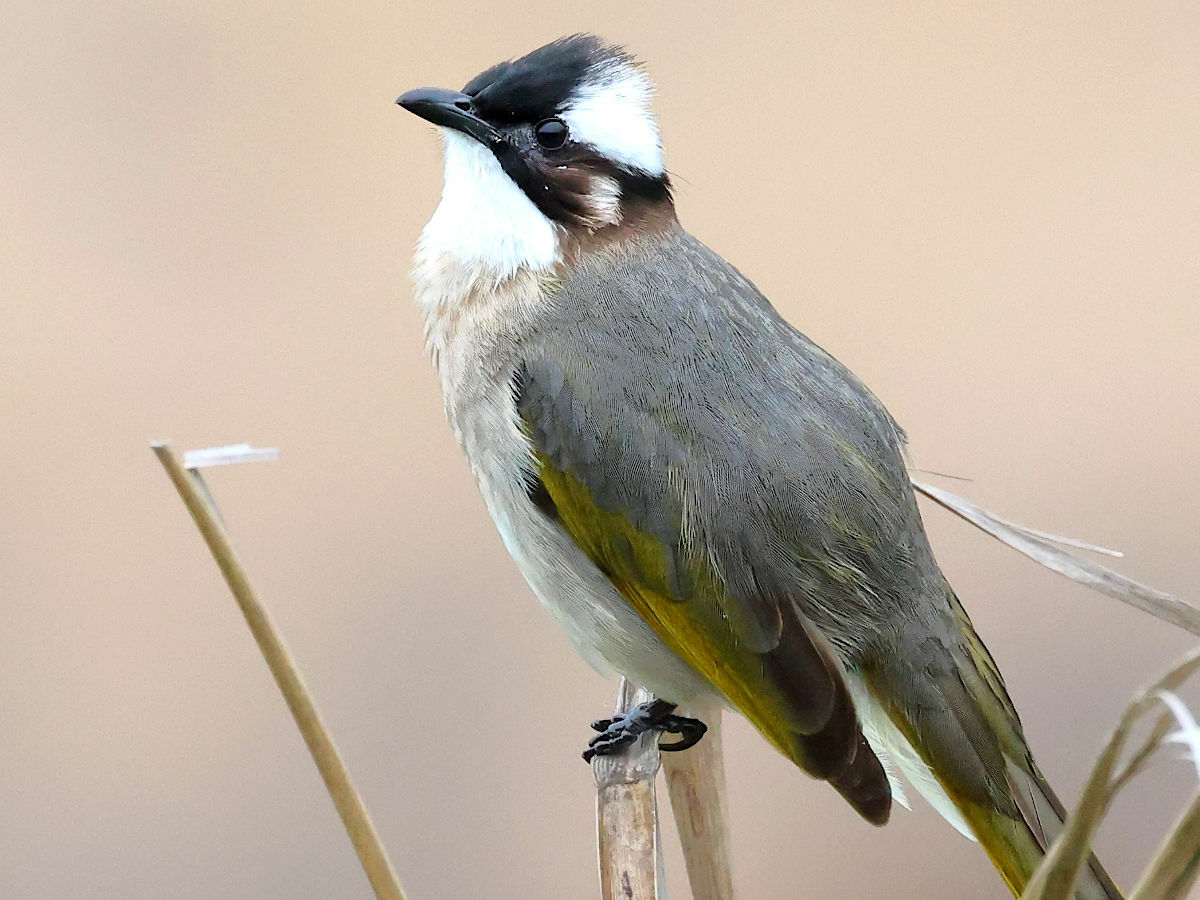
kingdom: Animalia
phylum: Chordata
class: Aves
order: Passeriformes
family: Pycnonotidae
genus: Pycnonotus
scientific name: Pycnonotus sinensis
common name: Light-vented bulbul
